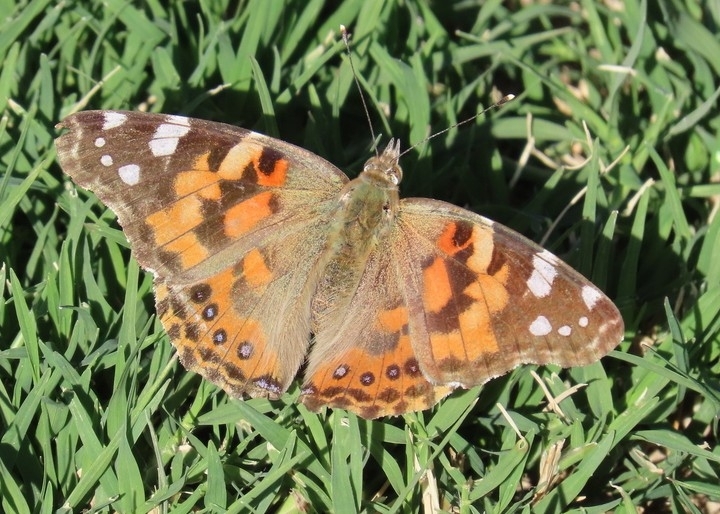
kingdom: Animalia
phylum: Arthropoda
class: Insecta
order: Lepidoptera
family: Nymphalidae
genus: Vanessa
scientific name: Vanessa cardui
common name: Painted lady
